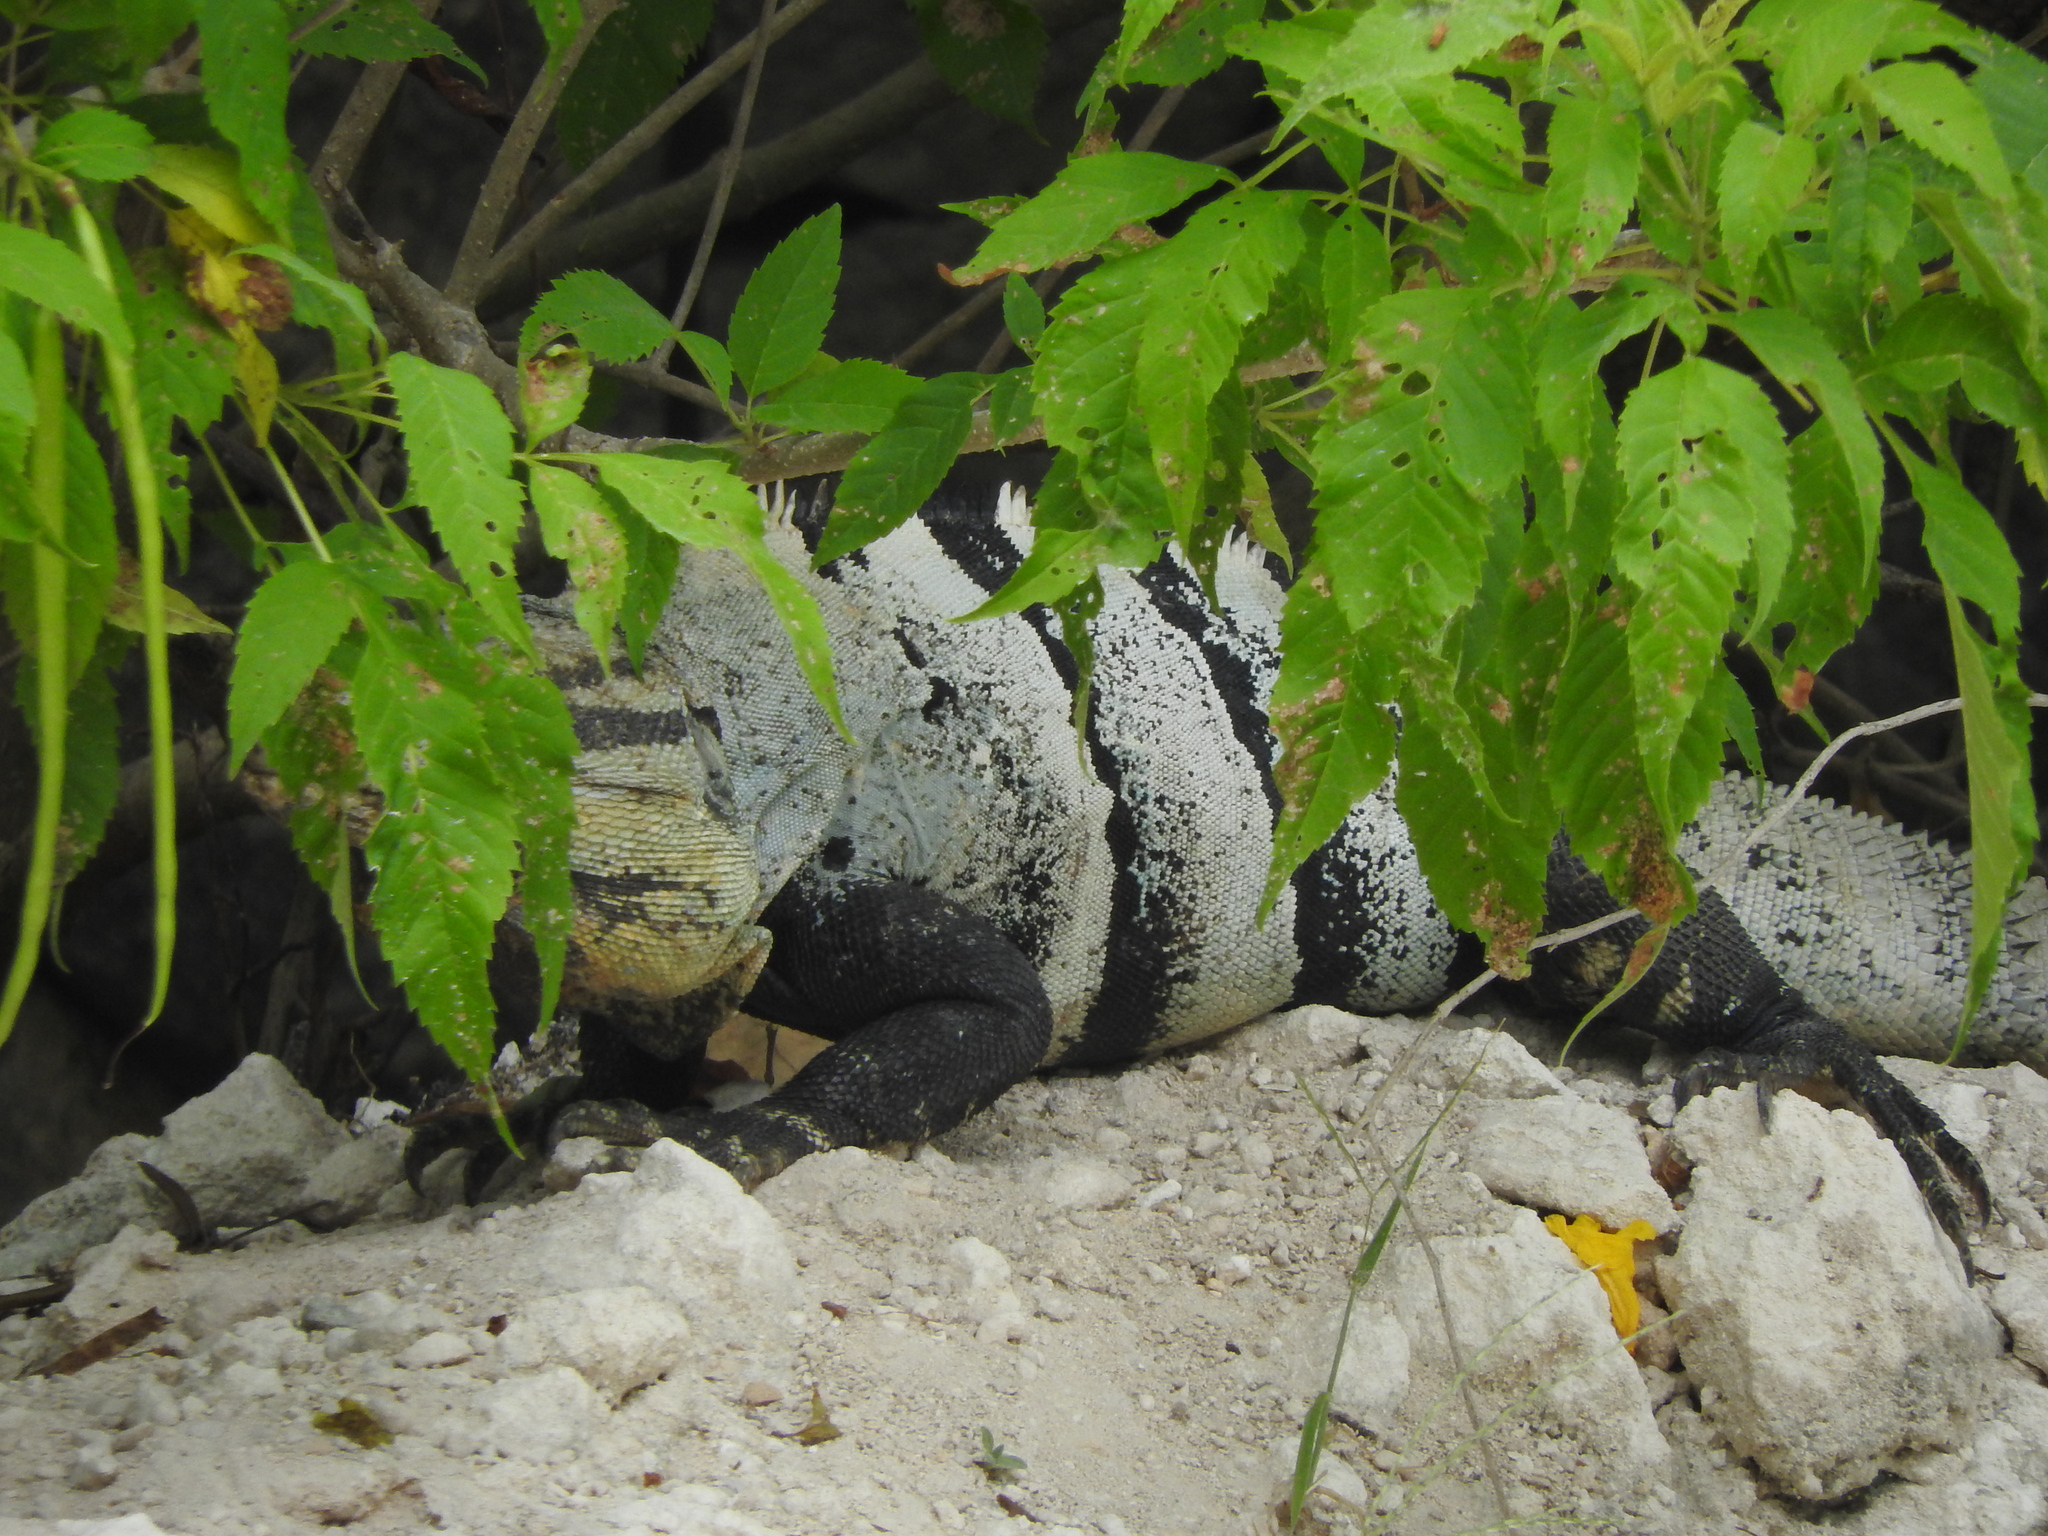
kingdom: Animalia
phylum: Chordata
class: Squamata
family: Iguanidae
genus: Ctenosaura
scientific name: Ctenosaura similis
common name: Black spiny-tailed iguana
